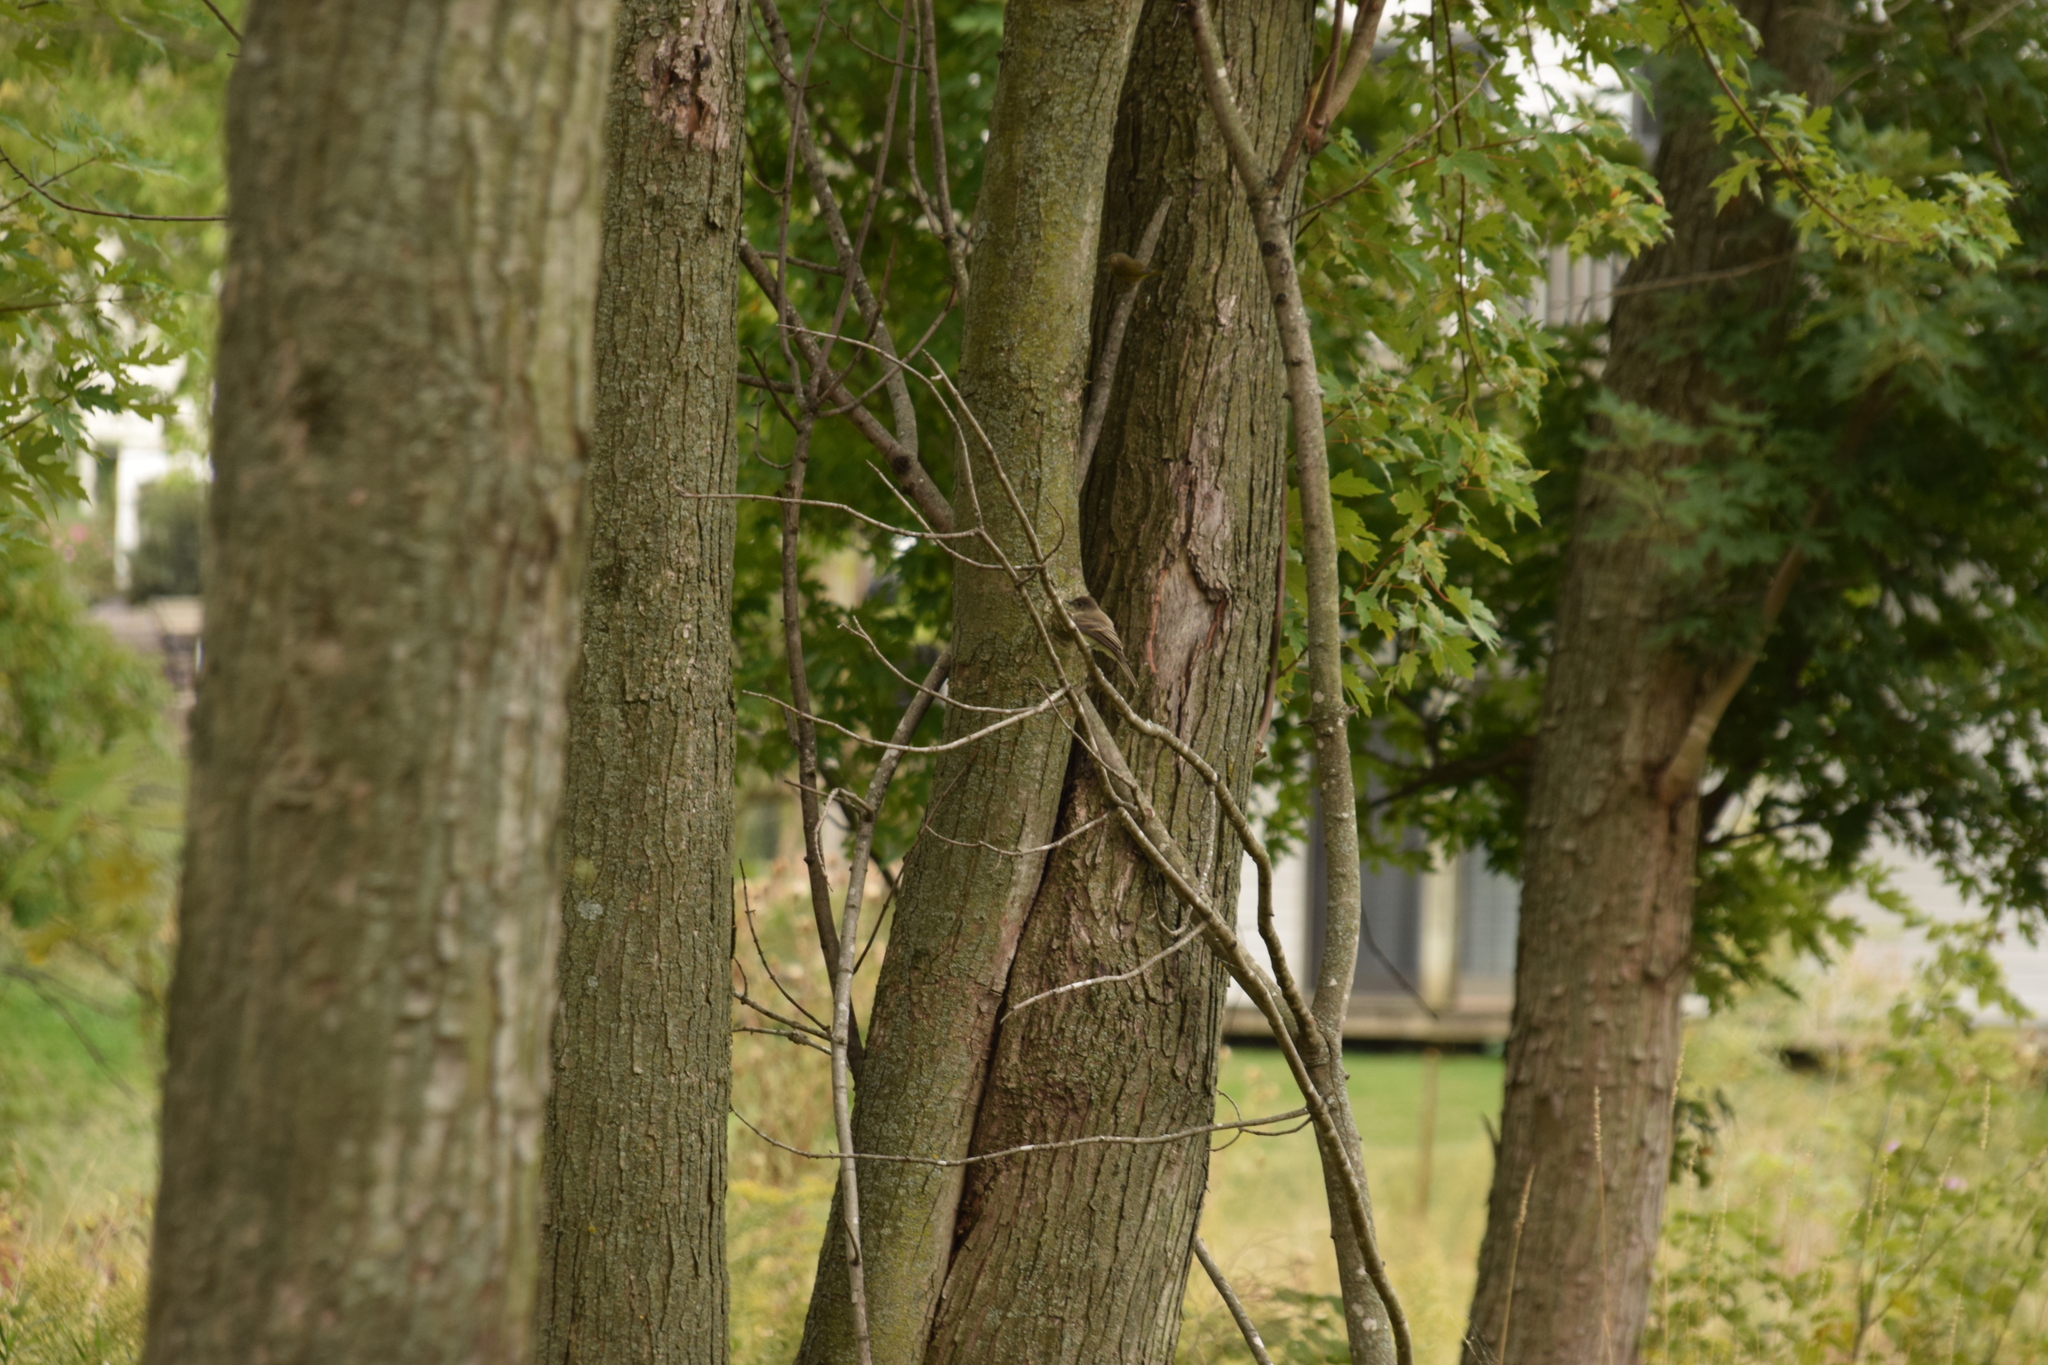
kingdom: Animalia
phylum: Chordata
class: Aves
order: Passeriformes
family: Tyrannidae
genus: Sayornis
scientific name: Sayornis phoebe
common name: Eastern phoebe
